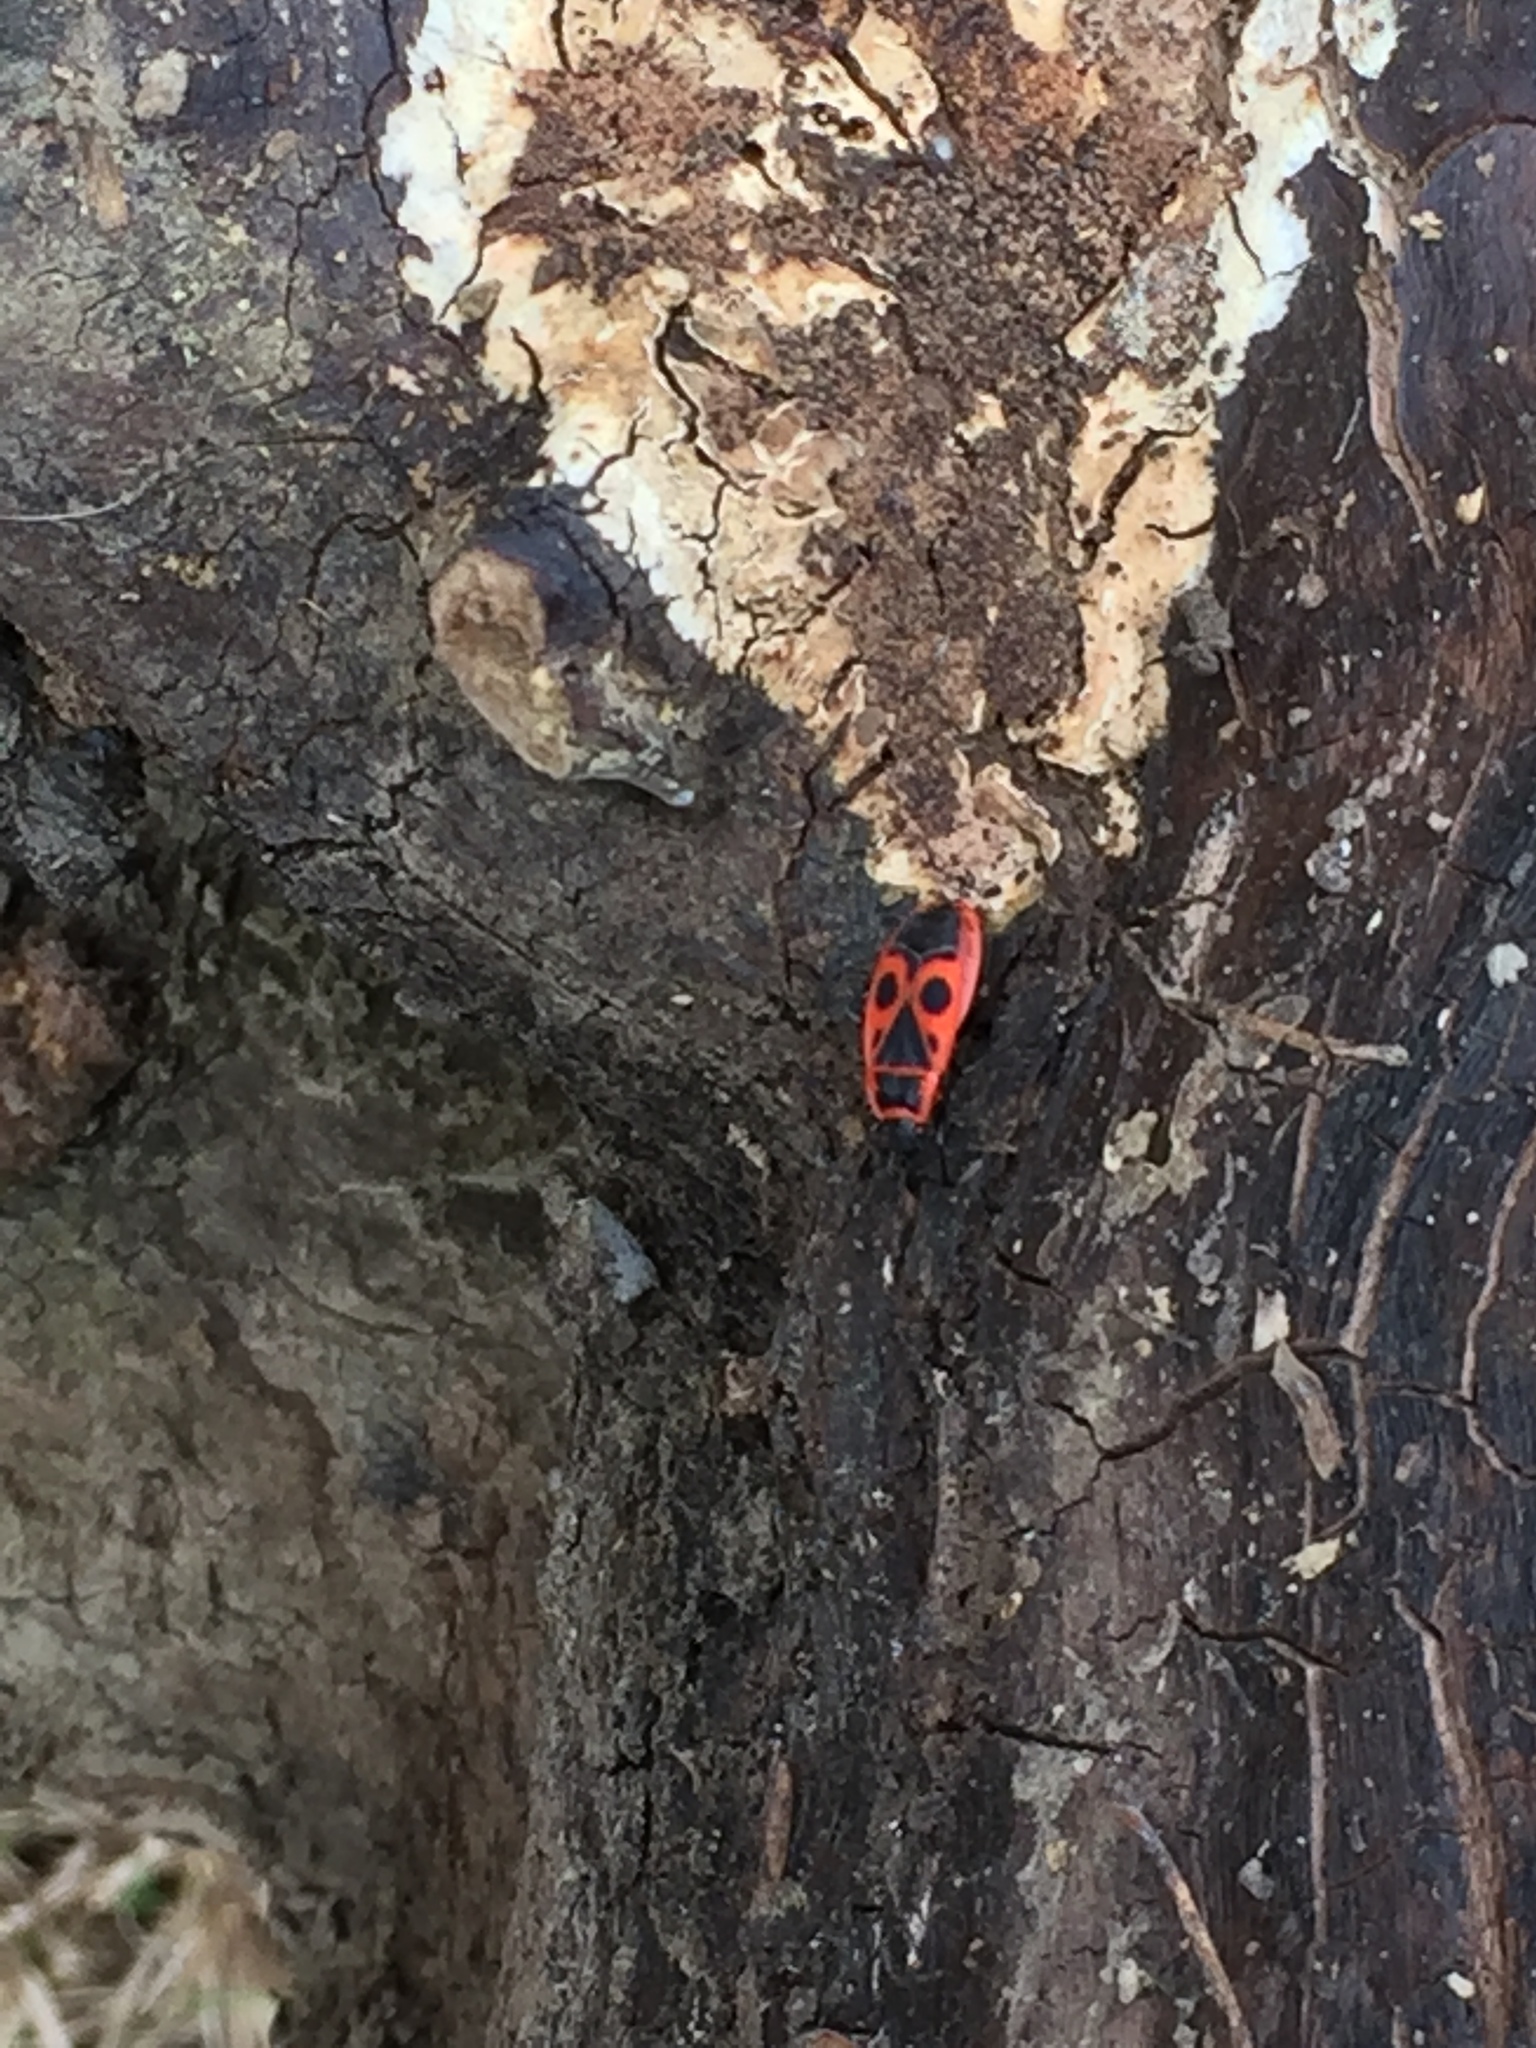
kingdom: Animalia
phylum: Arthropoda
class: Insecta
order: Hemiptera
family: Pyrrhocoridae
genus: Pyrrhocoris
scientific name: Pyrrhocoris apterus
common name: Firebug
